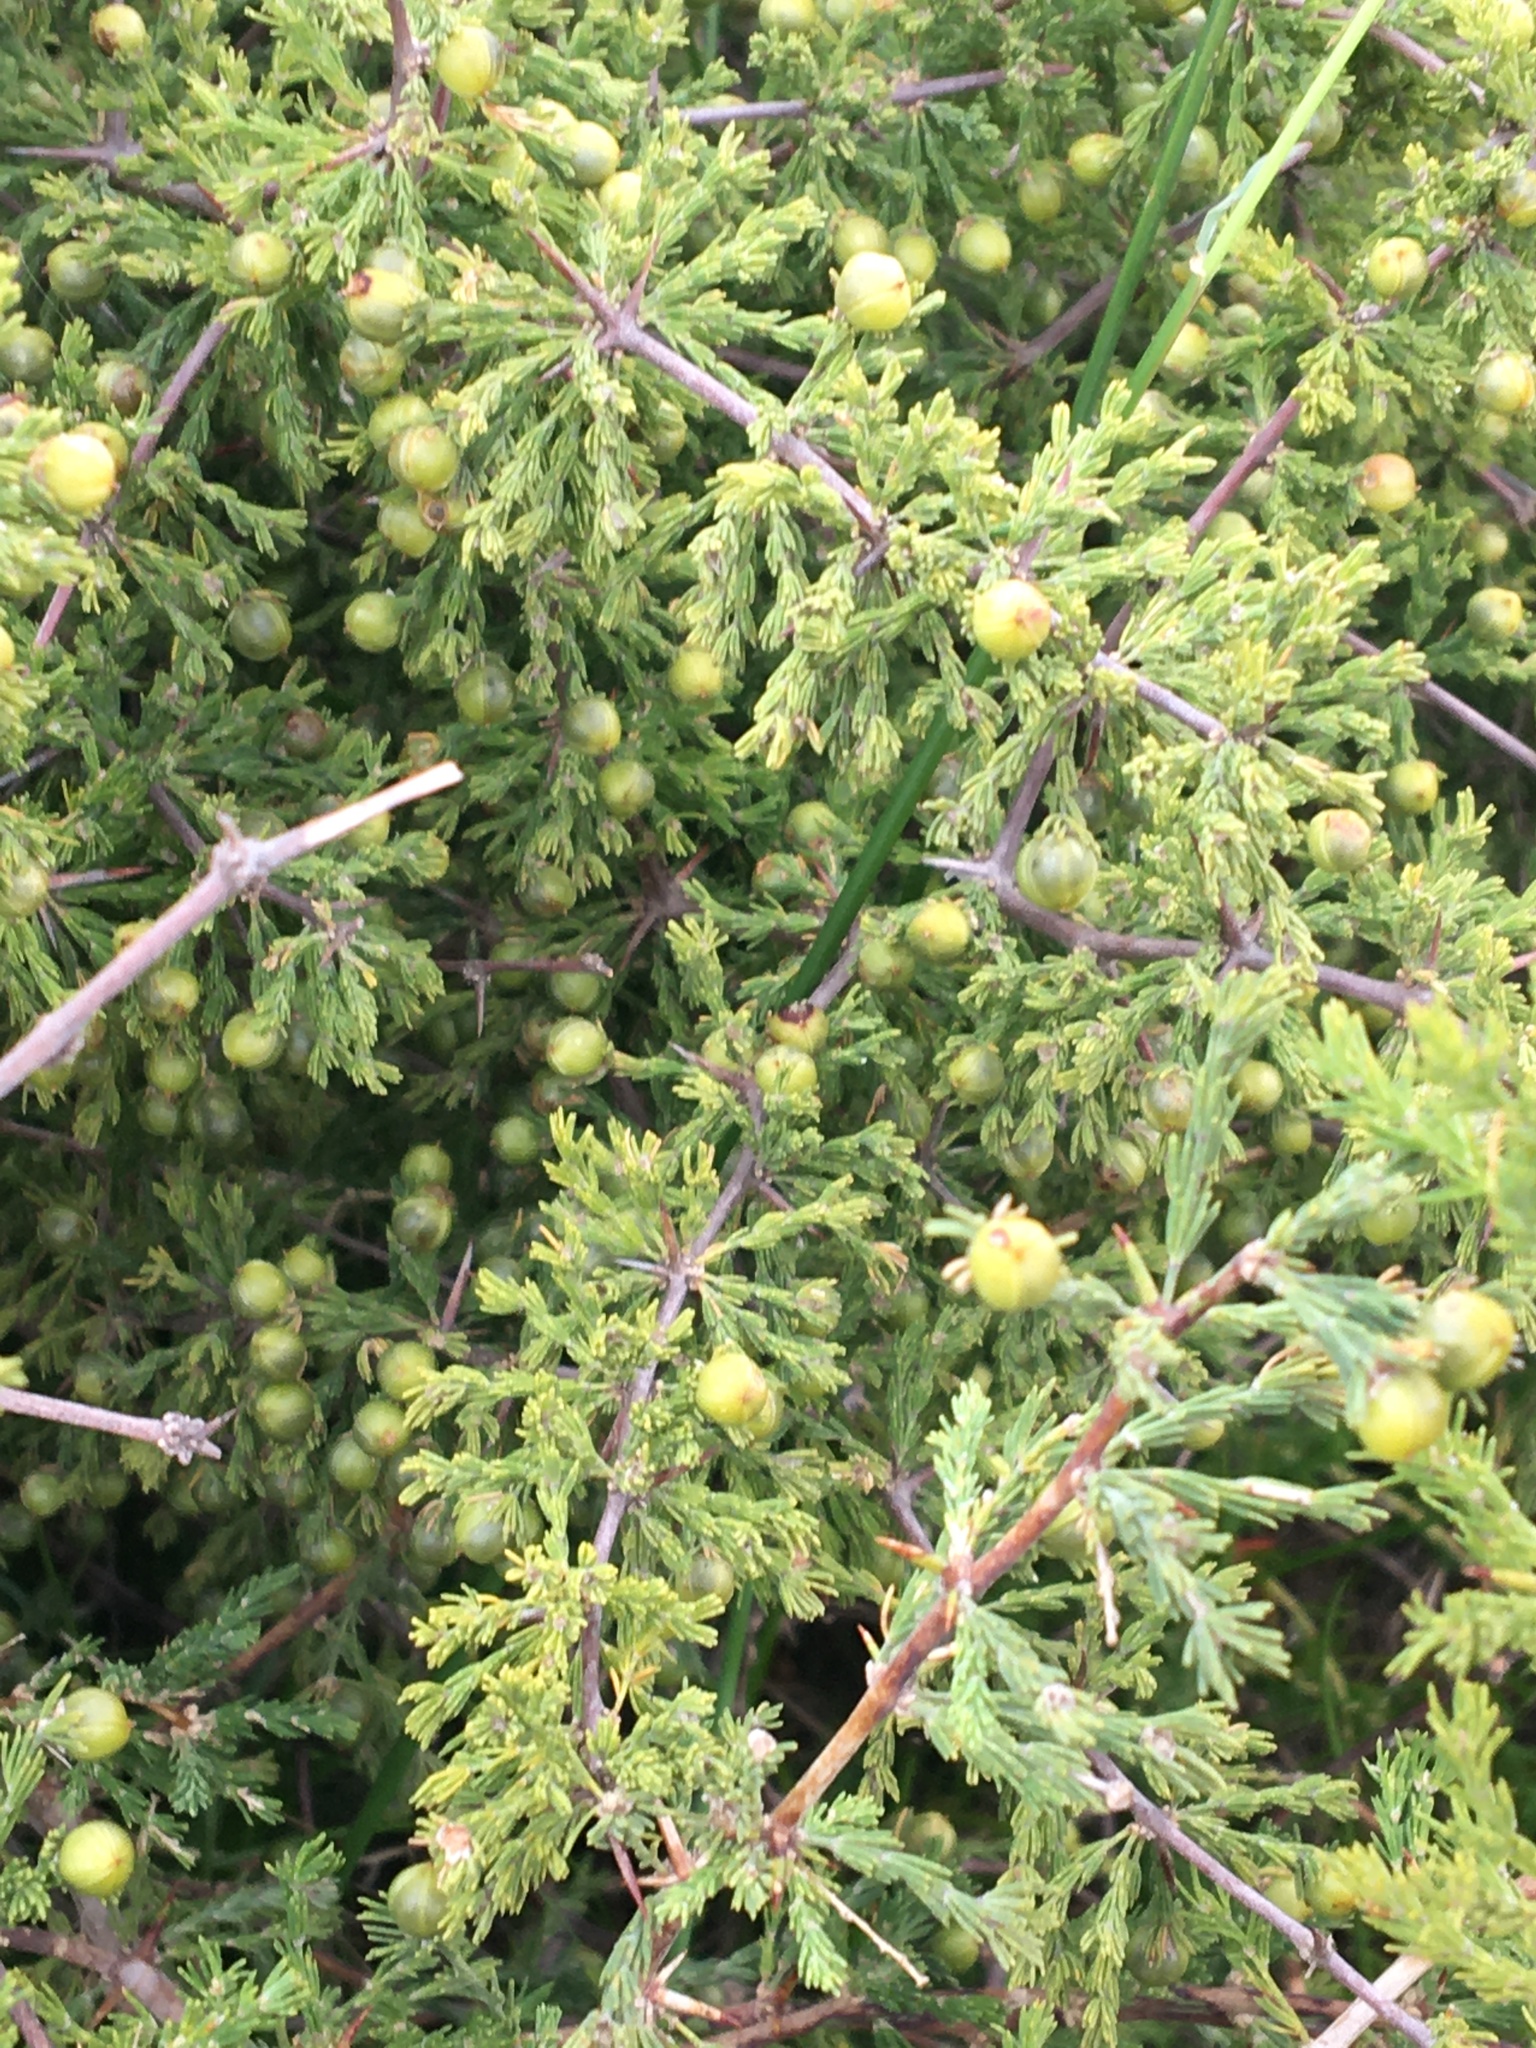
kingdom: Plantae
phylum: Tracheophyta
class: Liliopsida
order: Asparagales
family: Asparagaceae
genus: Asparagus
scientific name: Asparagus capensis
